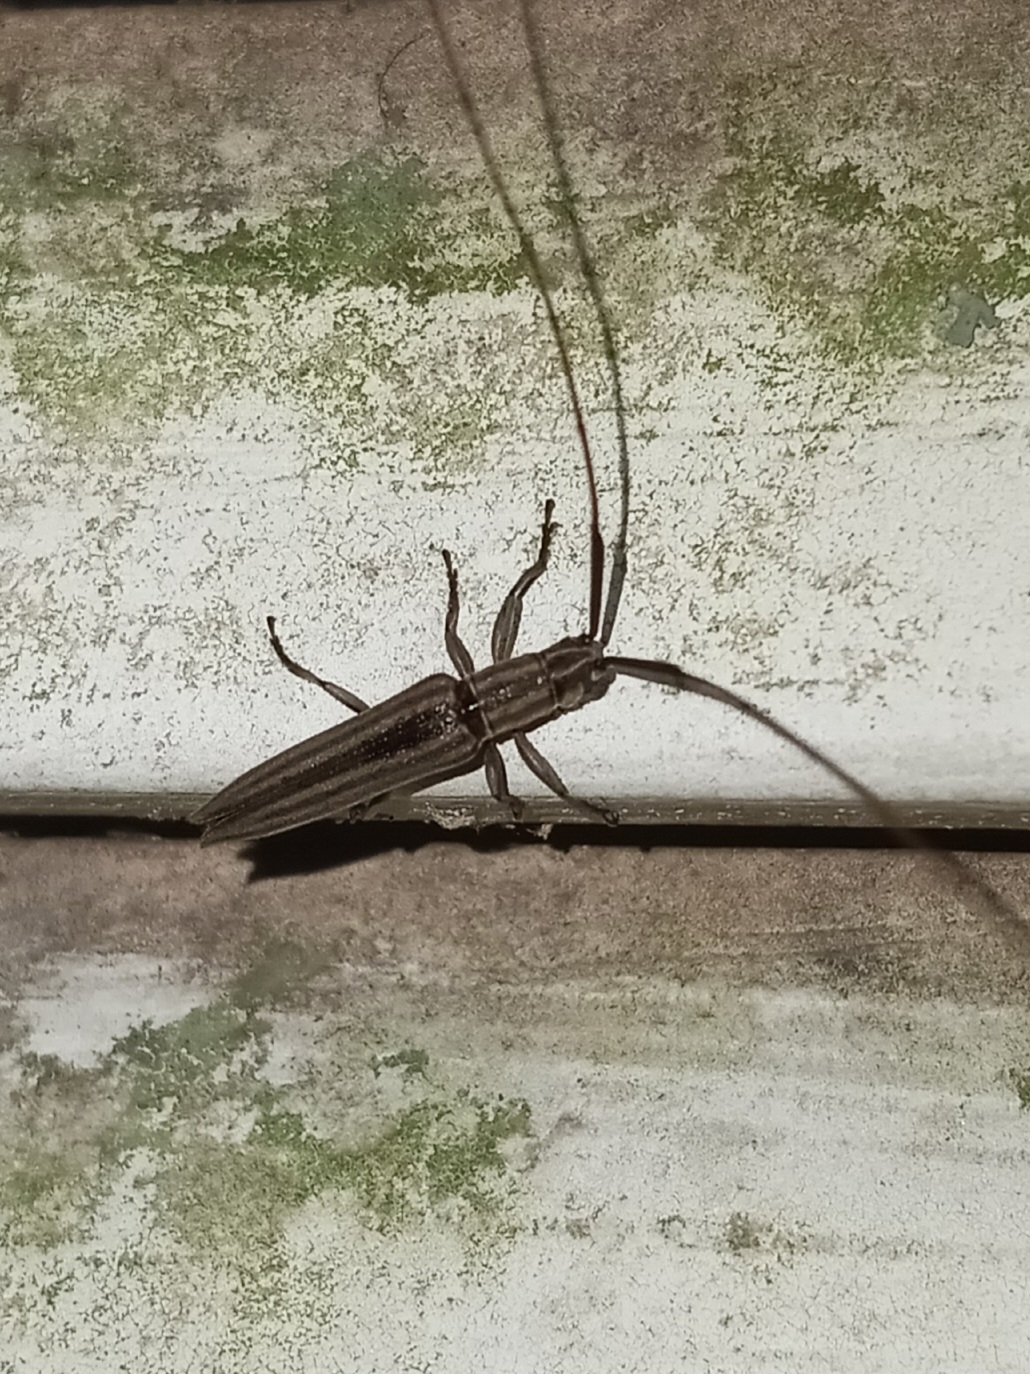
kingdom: Animalia
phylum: Arthropoda
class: Insecta
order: Coleoptera
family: Cerambycidae
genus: Hippopsis
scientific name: Hippopsis
